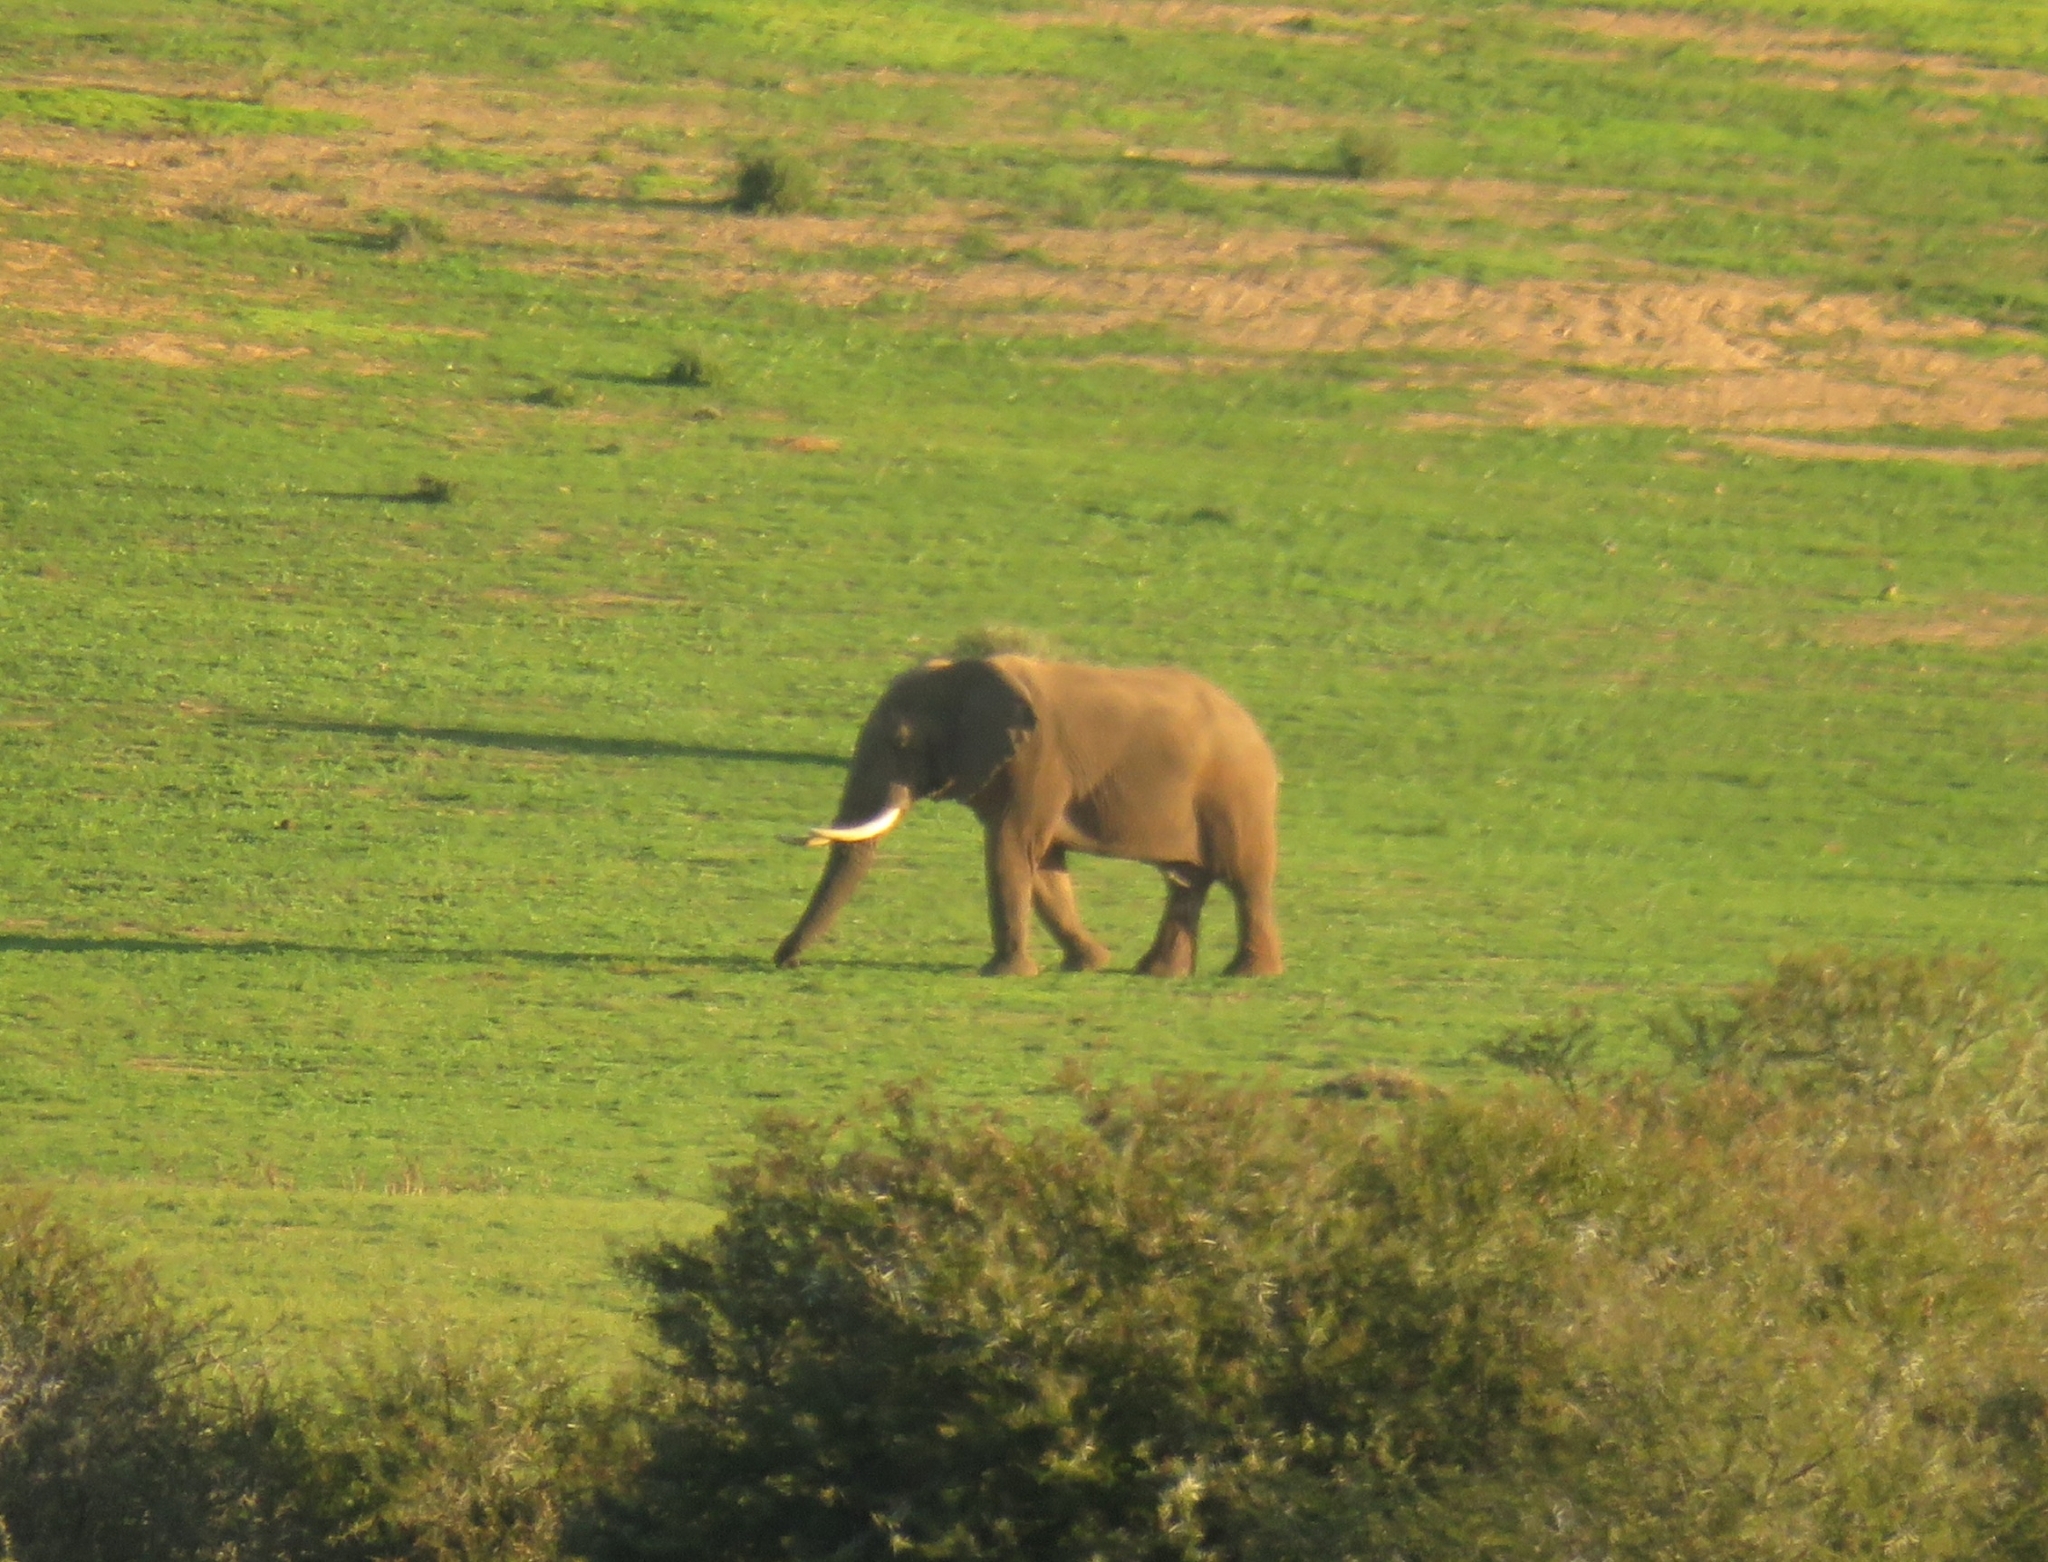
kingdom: Animalia
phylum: Chordata
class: Mammalia
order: Proboscidea
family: Elephantidae
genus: Loxodonta
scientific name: Loxodonta africana
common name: African elephant
